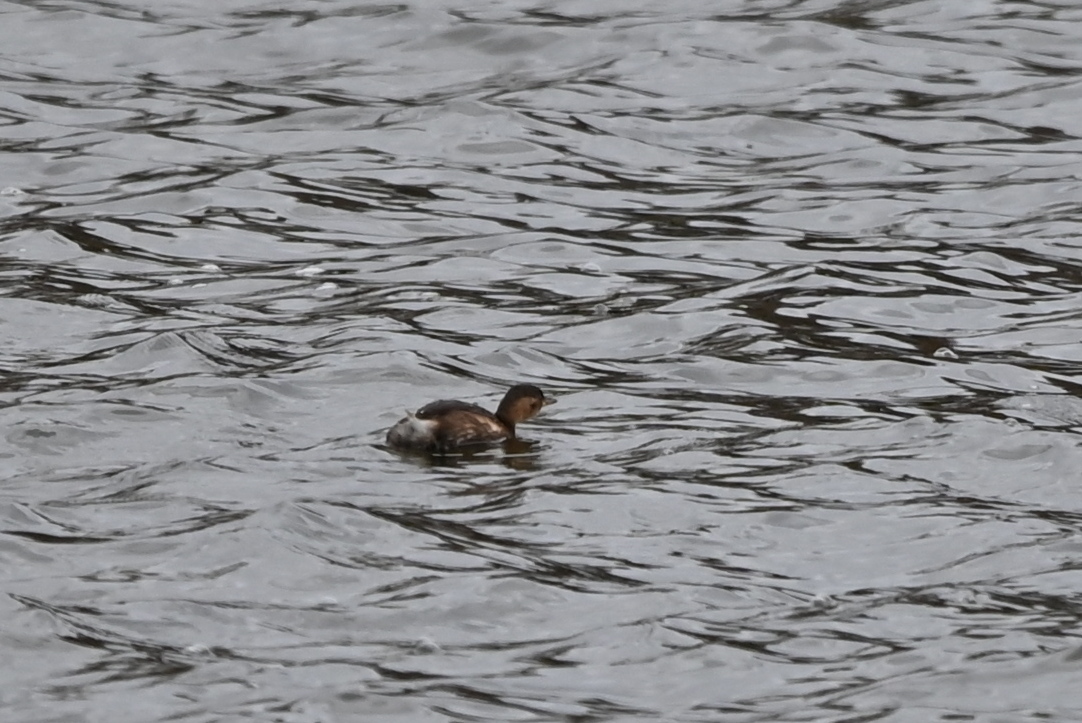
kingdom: Animalia
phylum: Chordata
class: Aves
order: Podicipediformes
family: Podicipedidae
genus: Tachybaptus
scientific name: Tachybaptus ruficollis
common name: Little grebe
